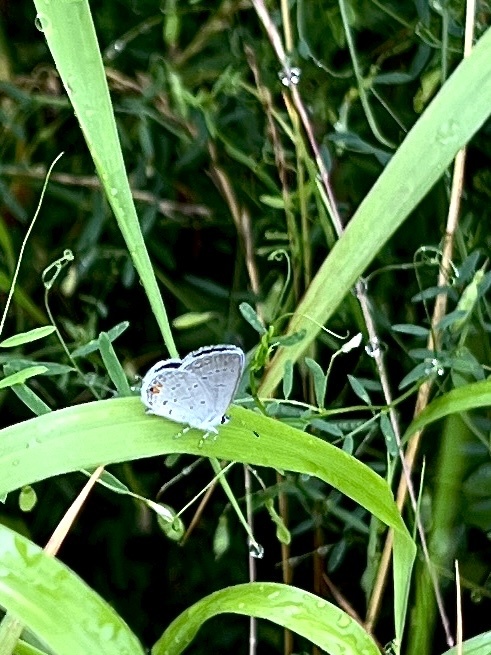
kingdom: Animalia
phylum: Arthropoda
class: Insecta
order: Lepidoptera
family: Lycaenidae
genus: Elkalyce
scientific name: Elkalyce comyntas
